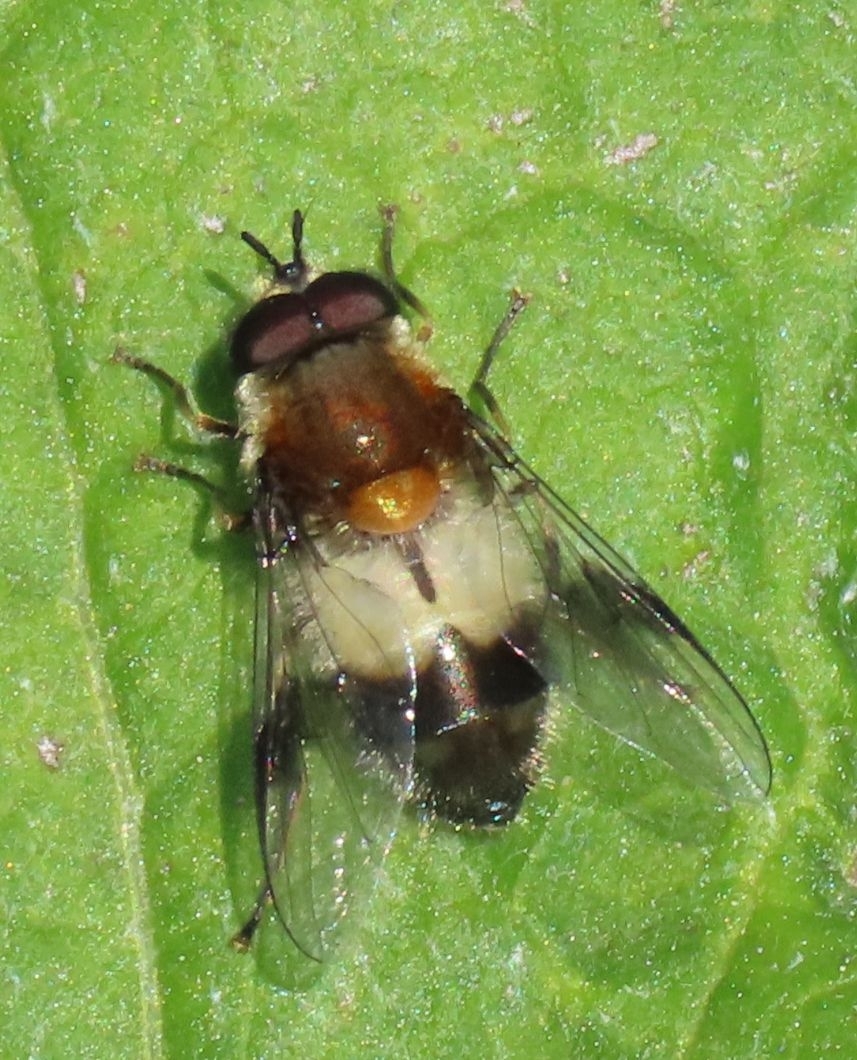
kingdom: Animalia
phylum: Arthropoda
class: Insecta
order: Diptera
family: Syrphidae
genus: Leucozona
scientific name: Leucozona lucorum
